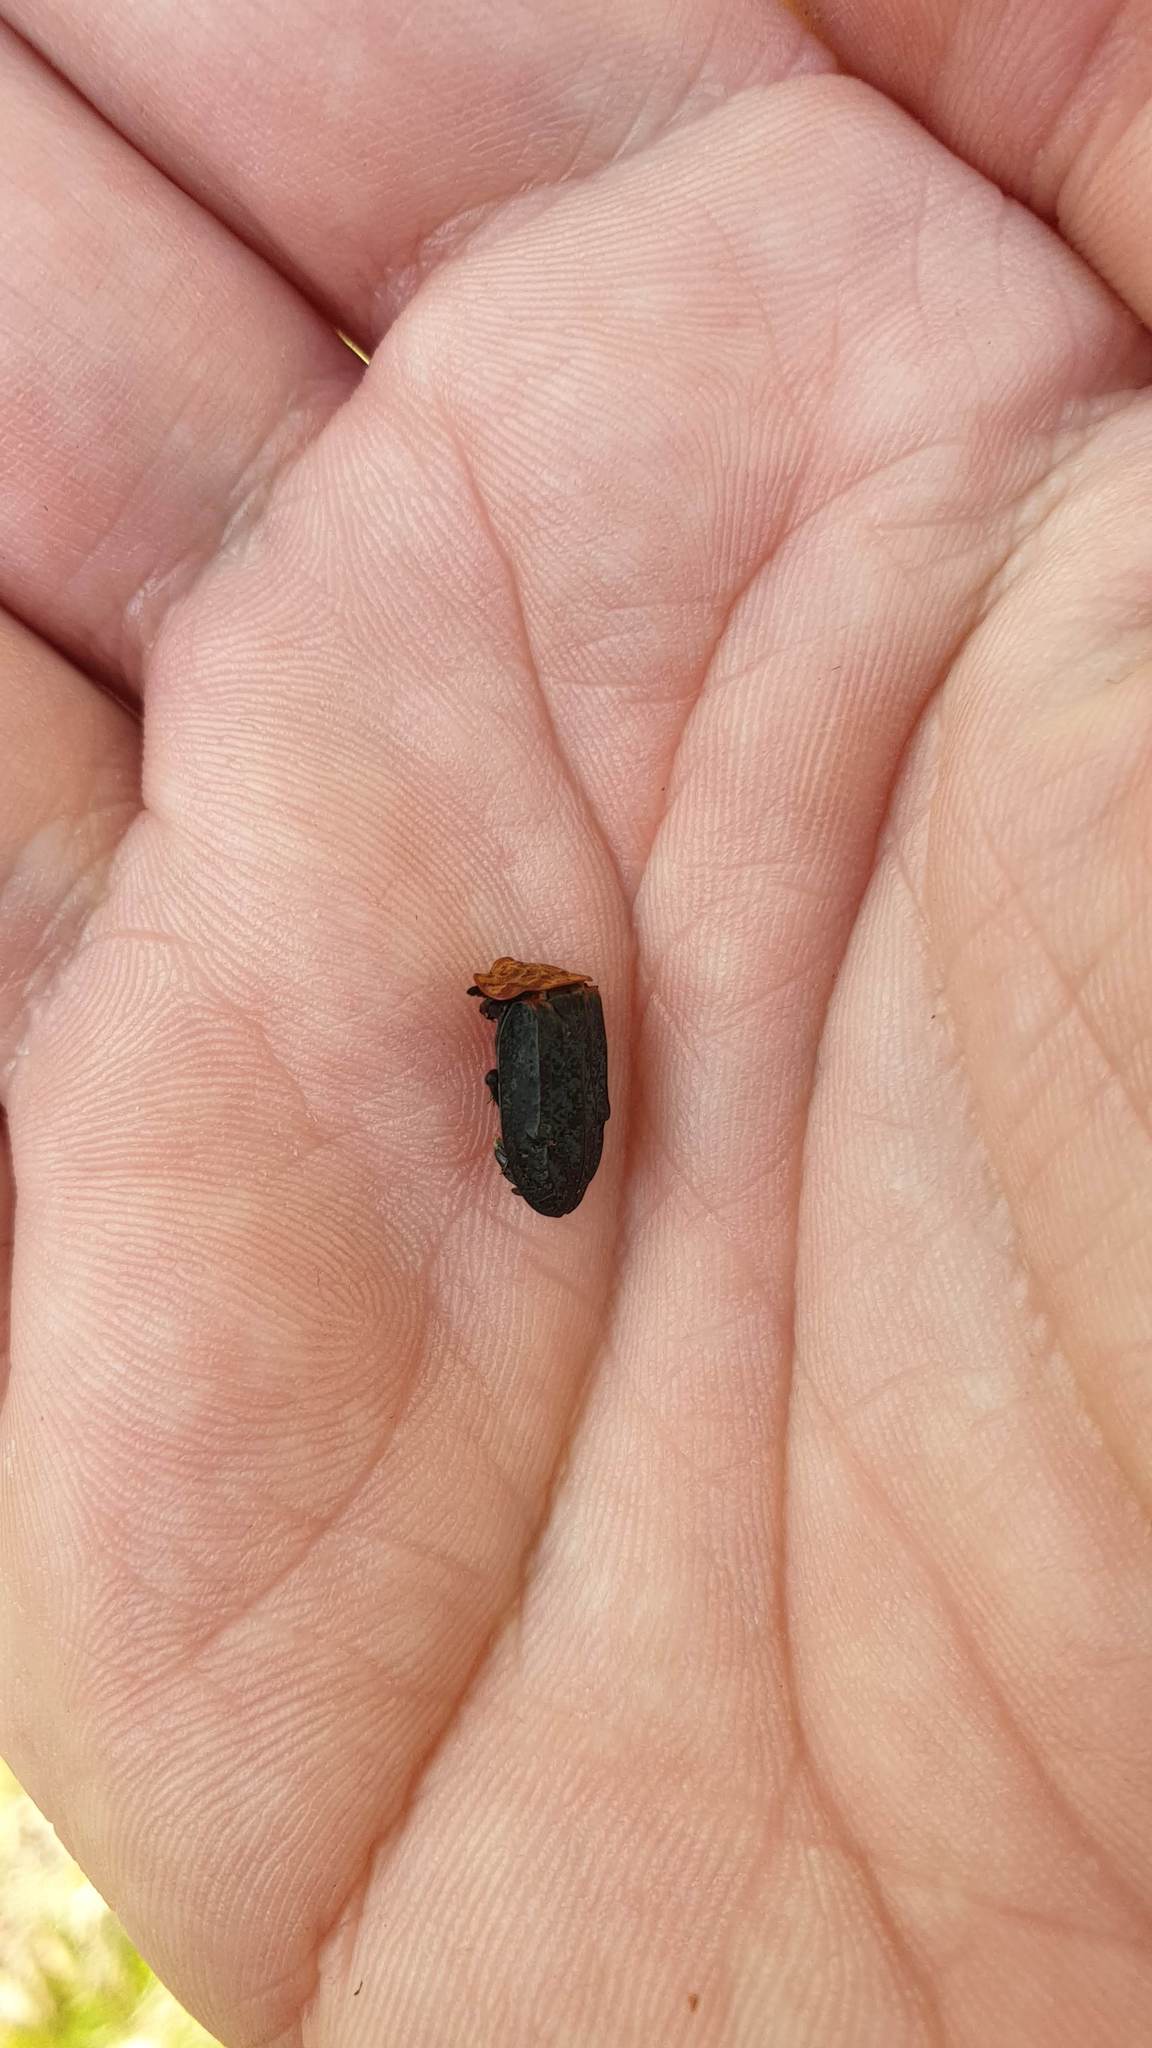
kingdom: Animalia
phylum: Arthropoda
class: Insecta
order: Coleoptera
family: Staphylinidae
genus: Oiceoptoma
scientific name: Oiceoptoma thoracicum
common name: Red-breasted carrion beetle
